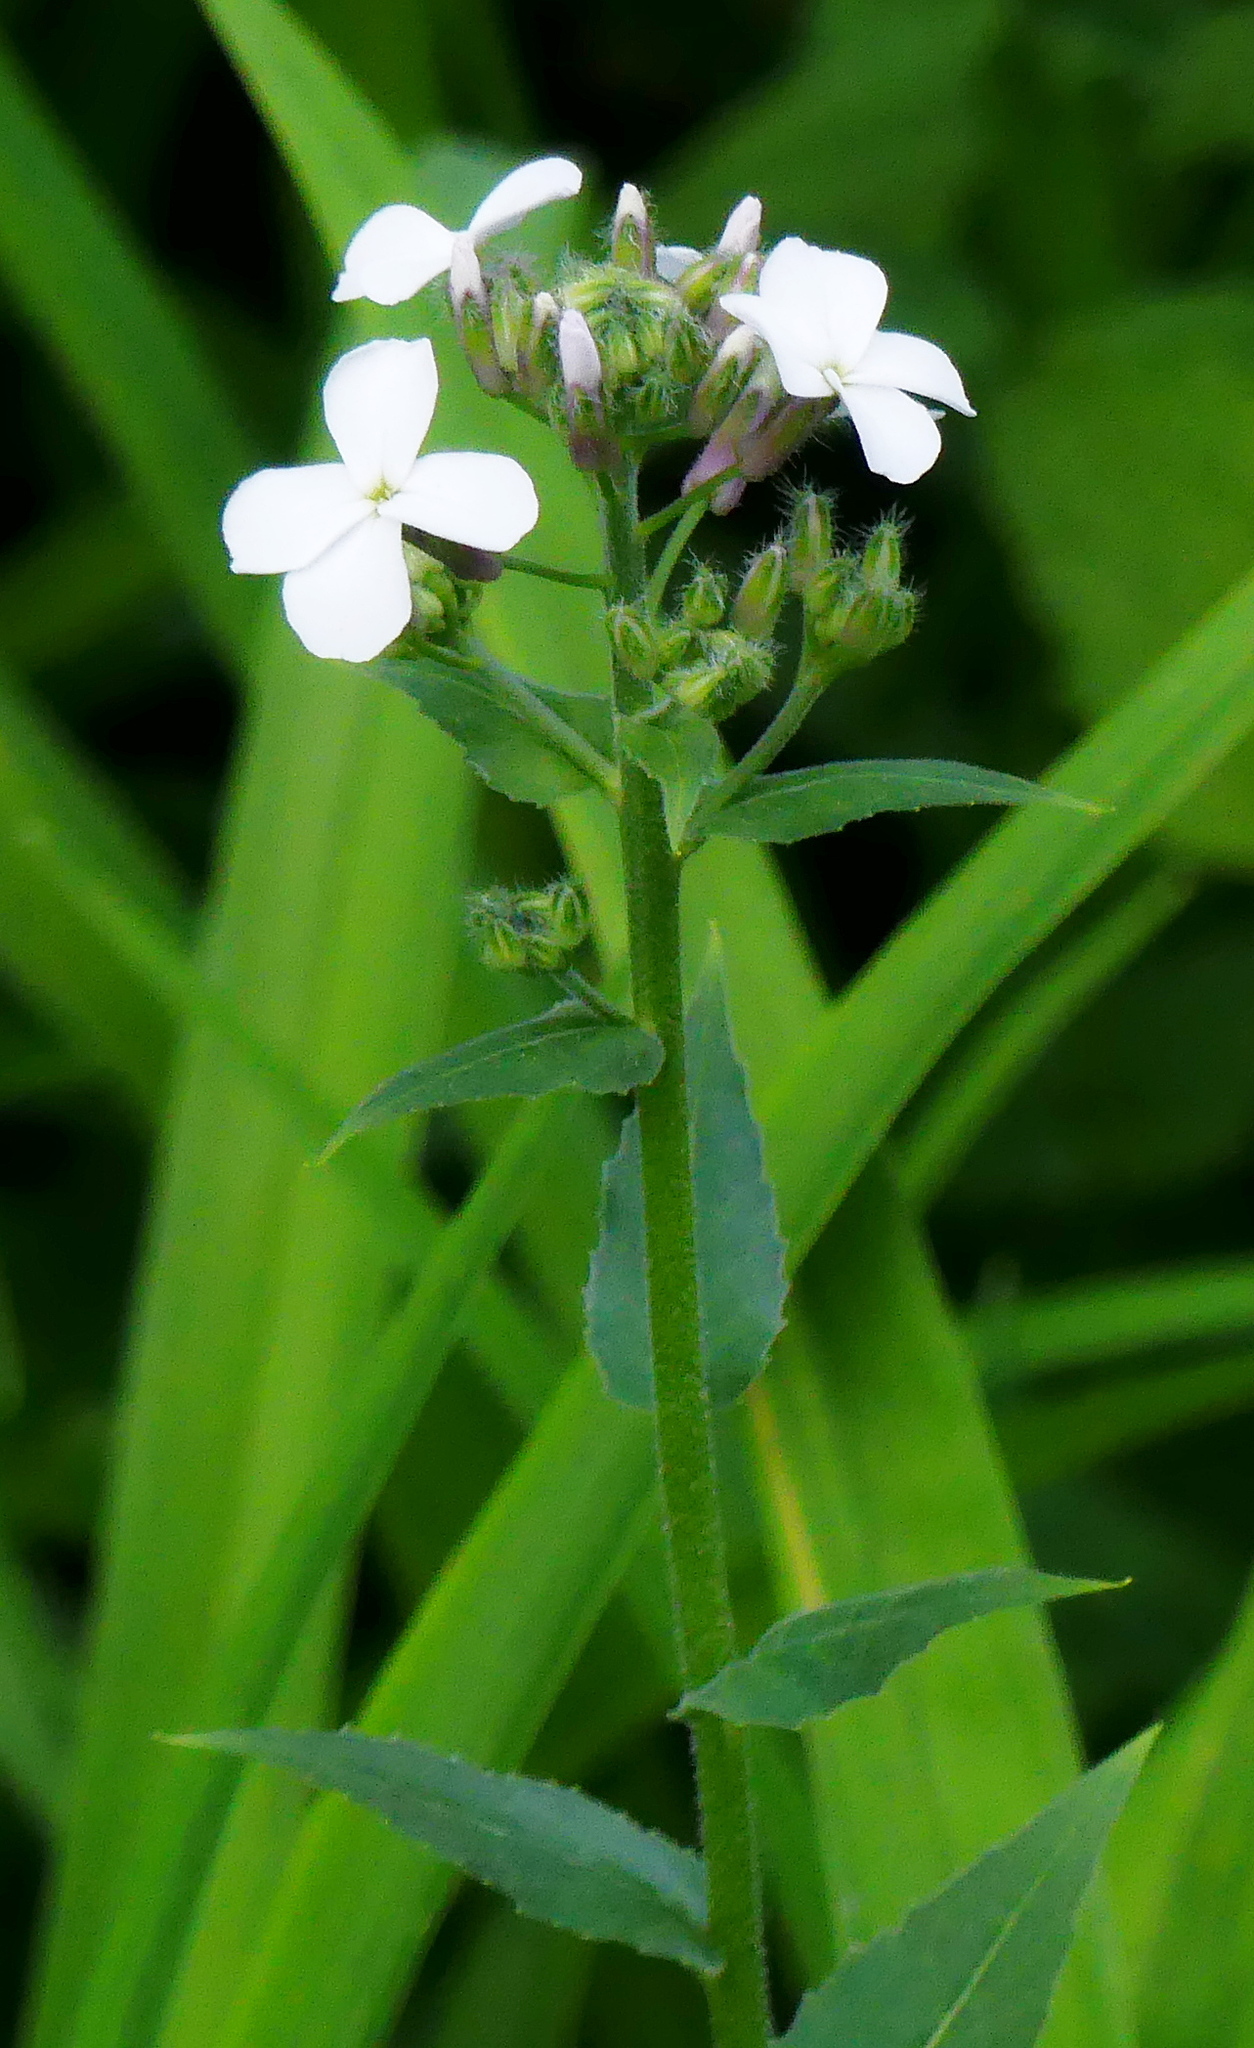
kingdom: Plantae
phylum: Tracheophyta
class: Magnoliopsida
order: Brassicales
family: Brassicaceae
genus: Hesperis
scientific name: Hesperis matronalis
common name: Dame's-violet
